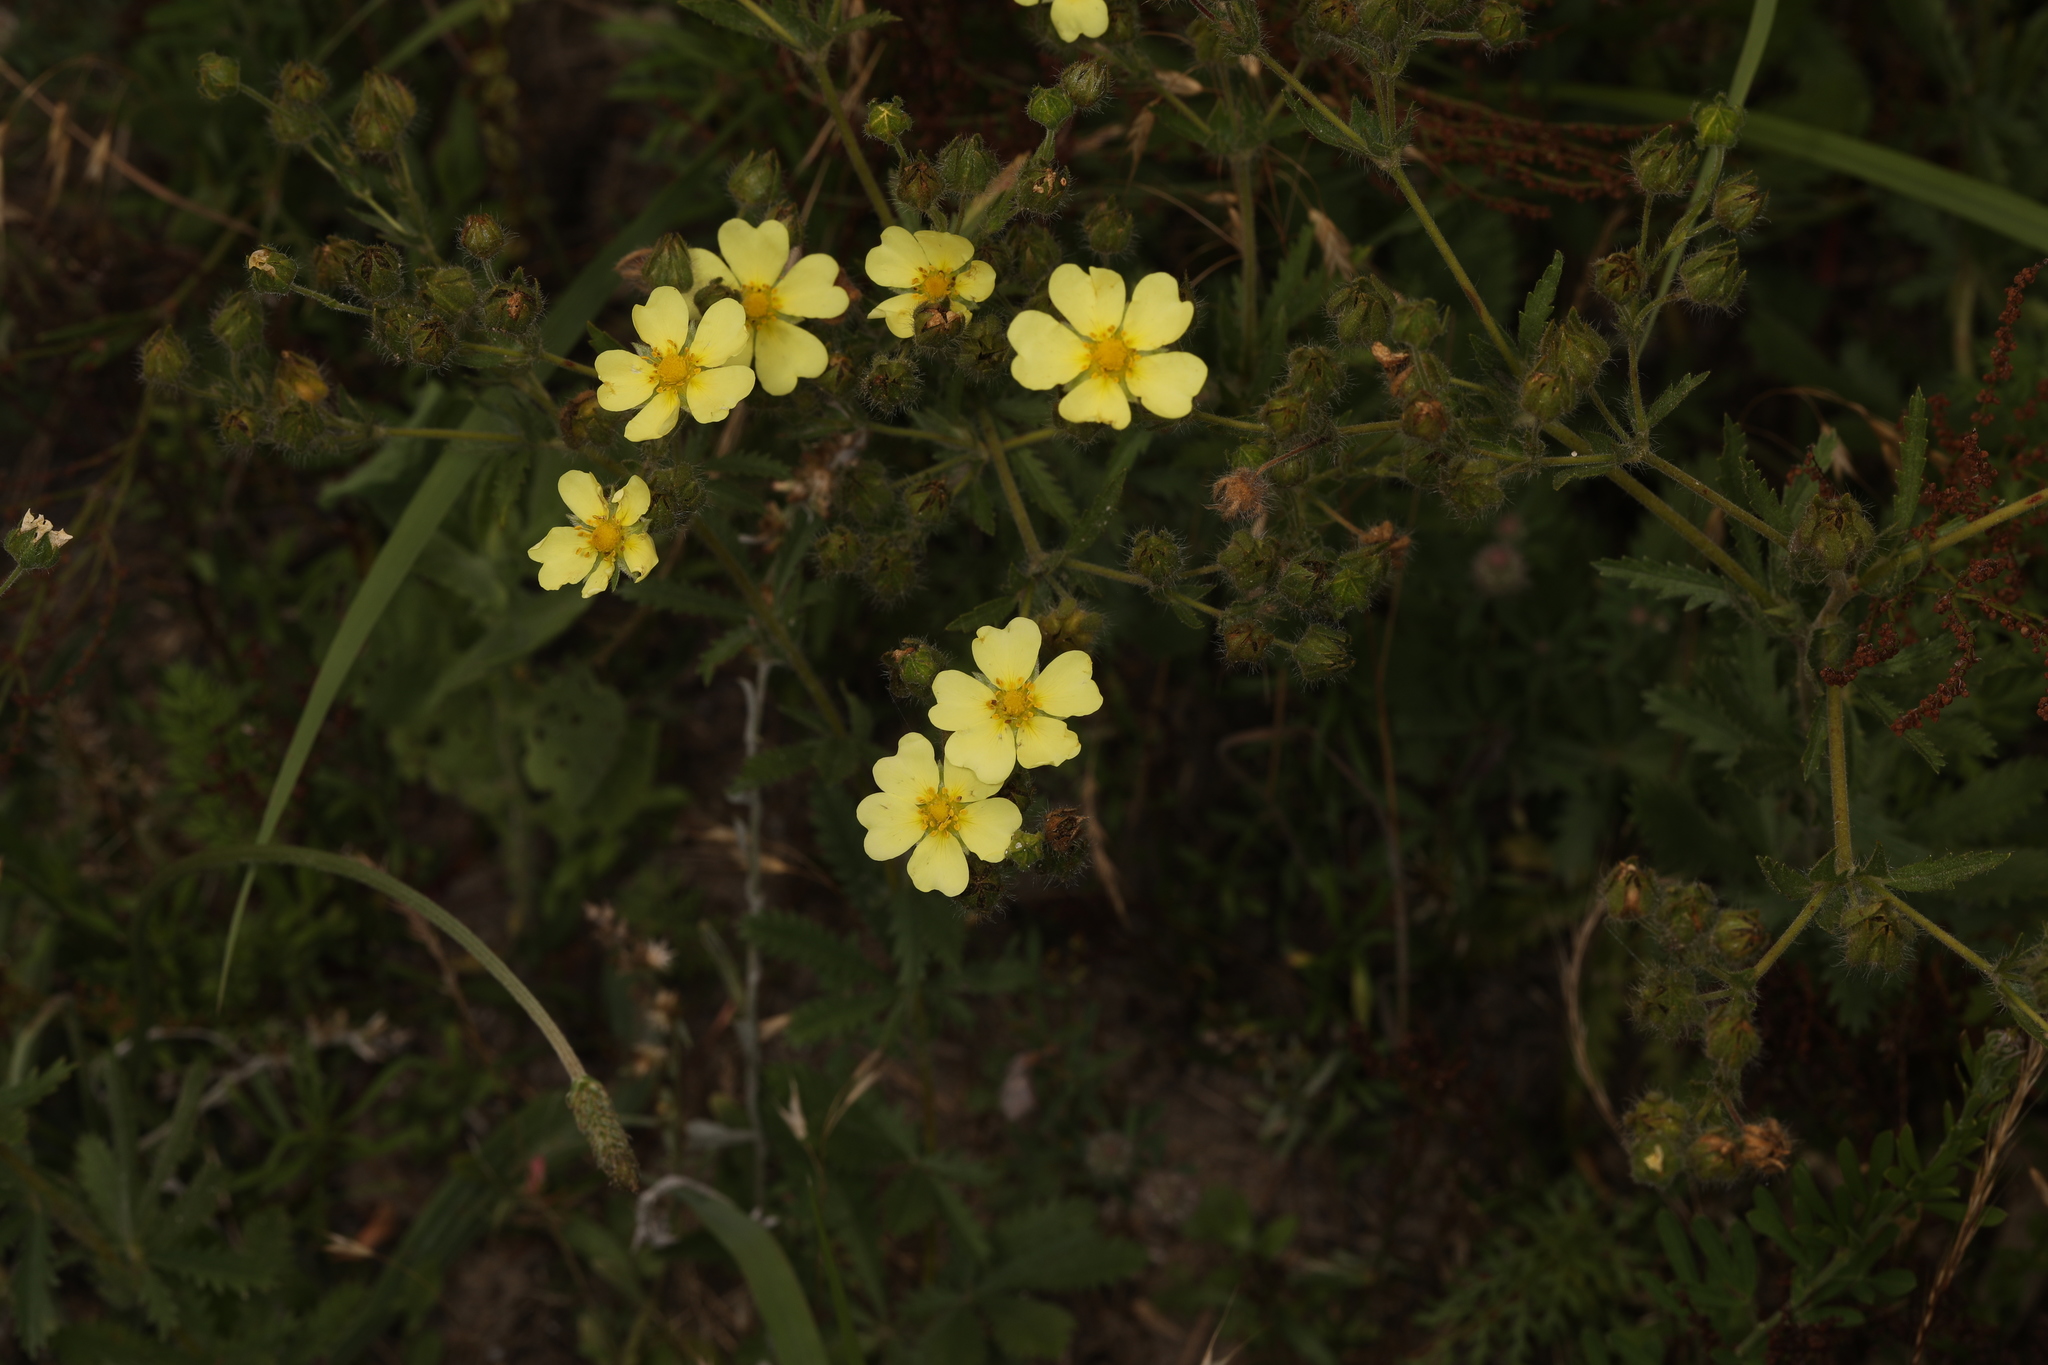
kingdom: Plantae
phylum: Tracheophyta
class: Magnoliopsida
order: Rosales
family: Rosaceae
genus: Potentilla
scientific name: Potentilla recta
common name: Sulphur cinquefoil
